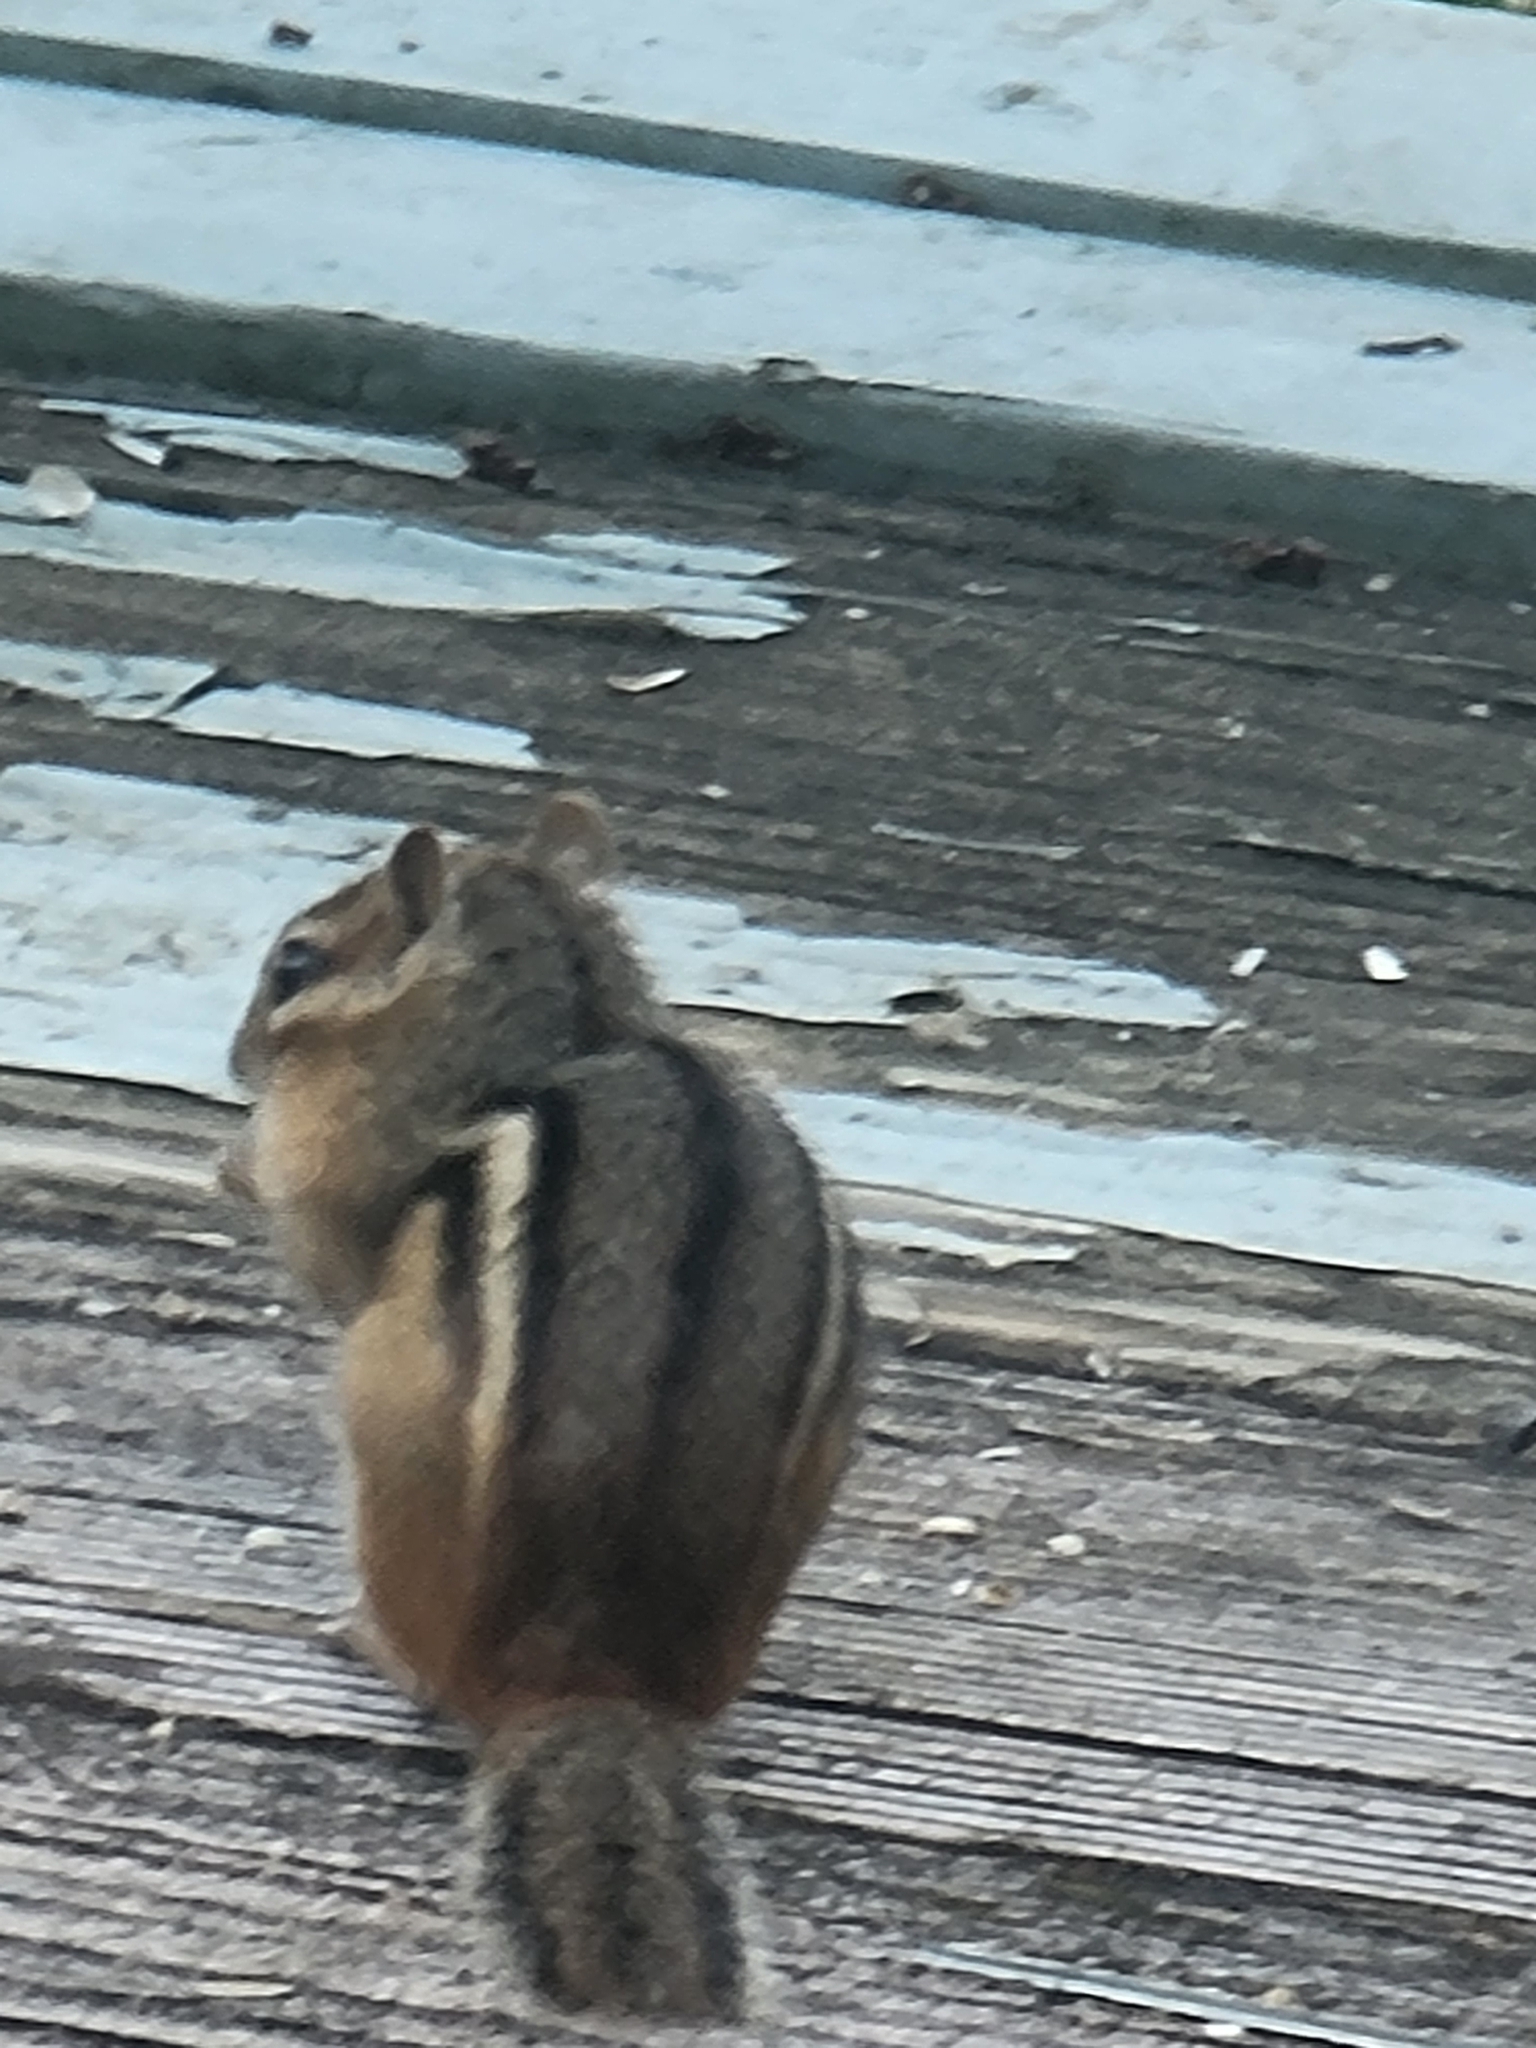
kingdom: Animalia
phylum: Chordata
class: Mammalia
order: Rodentia
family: Sciuridae
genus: Tamias
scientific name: Tamias striatus
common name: Eastern chipmunk
